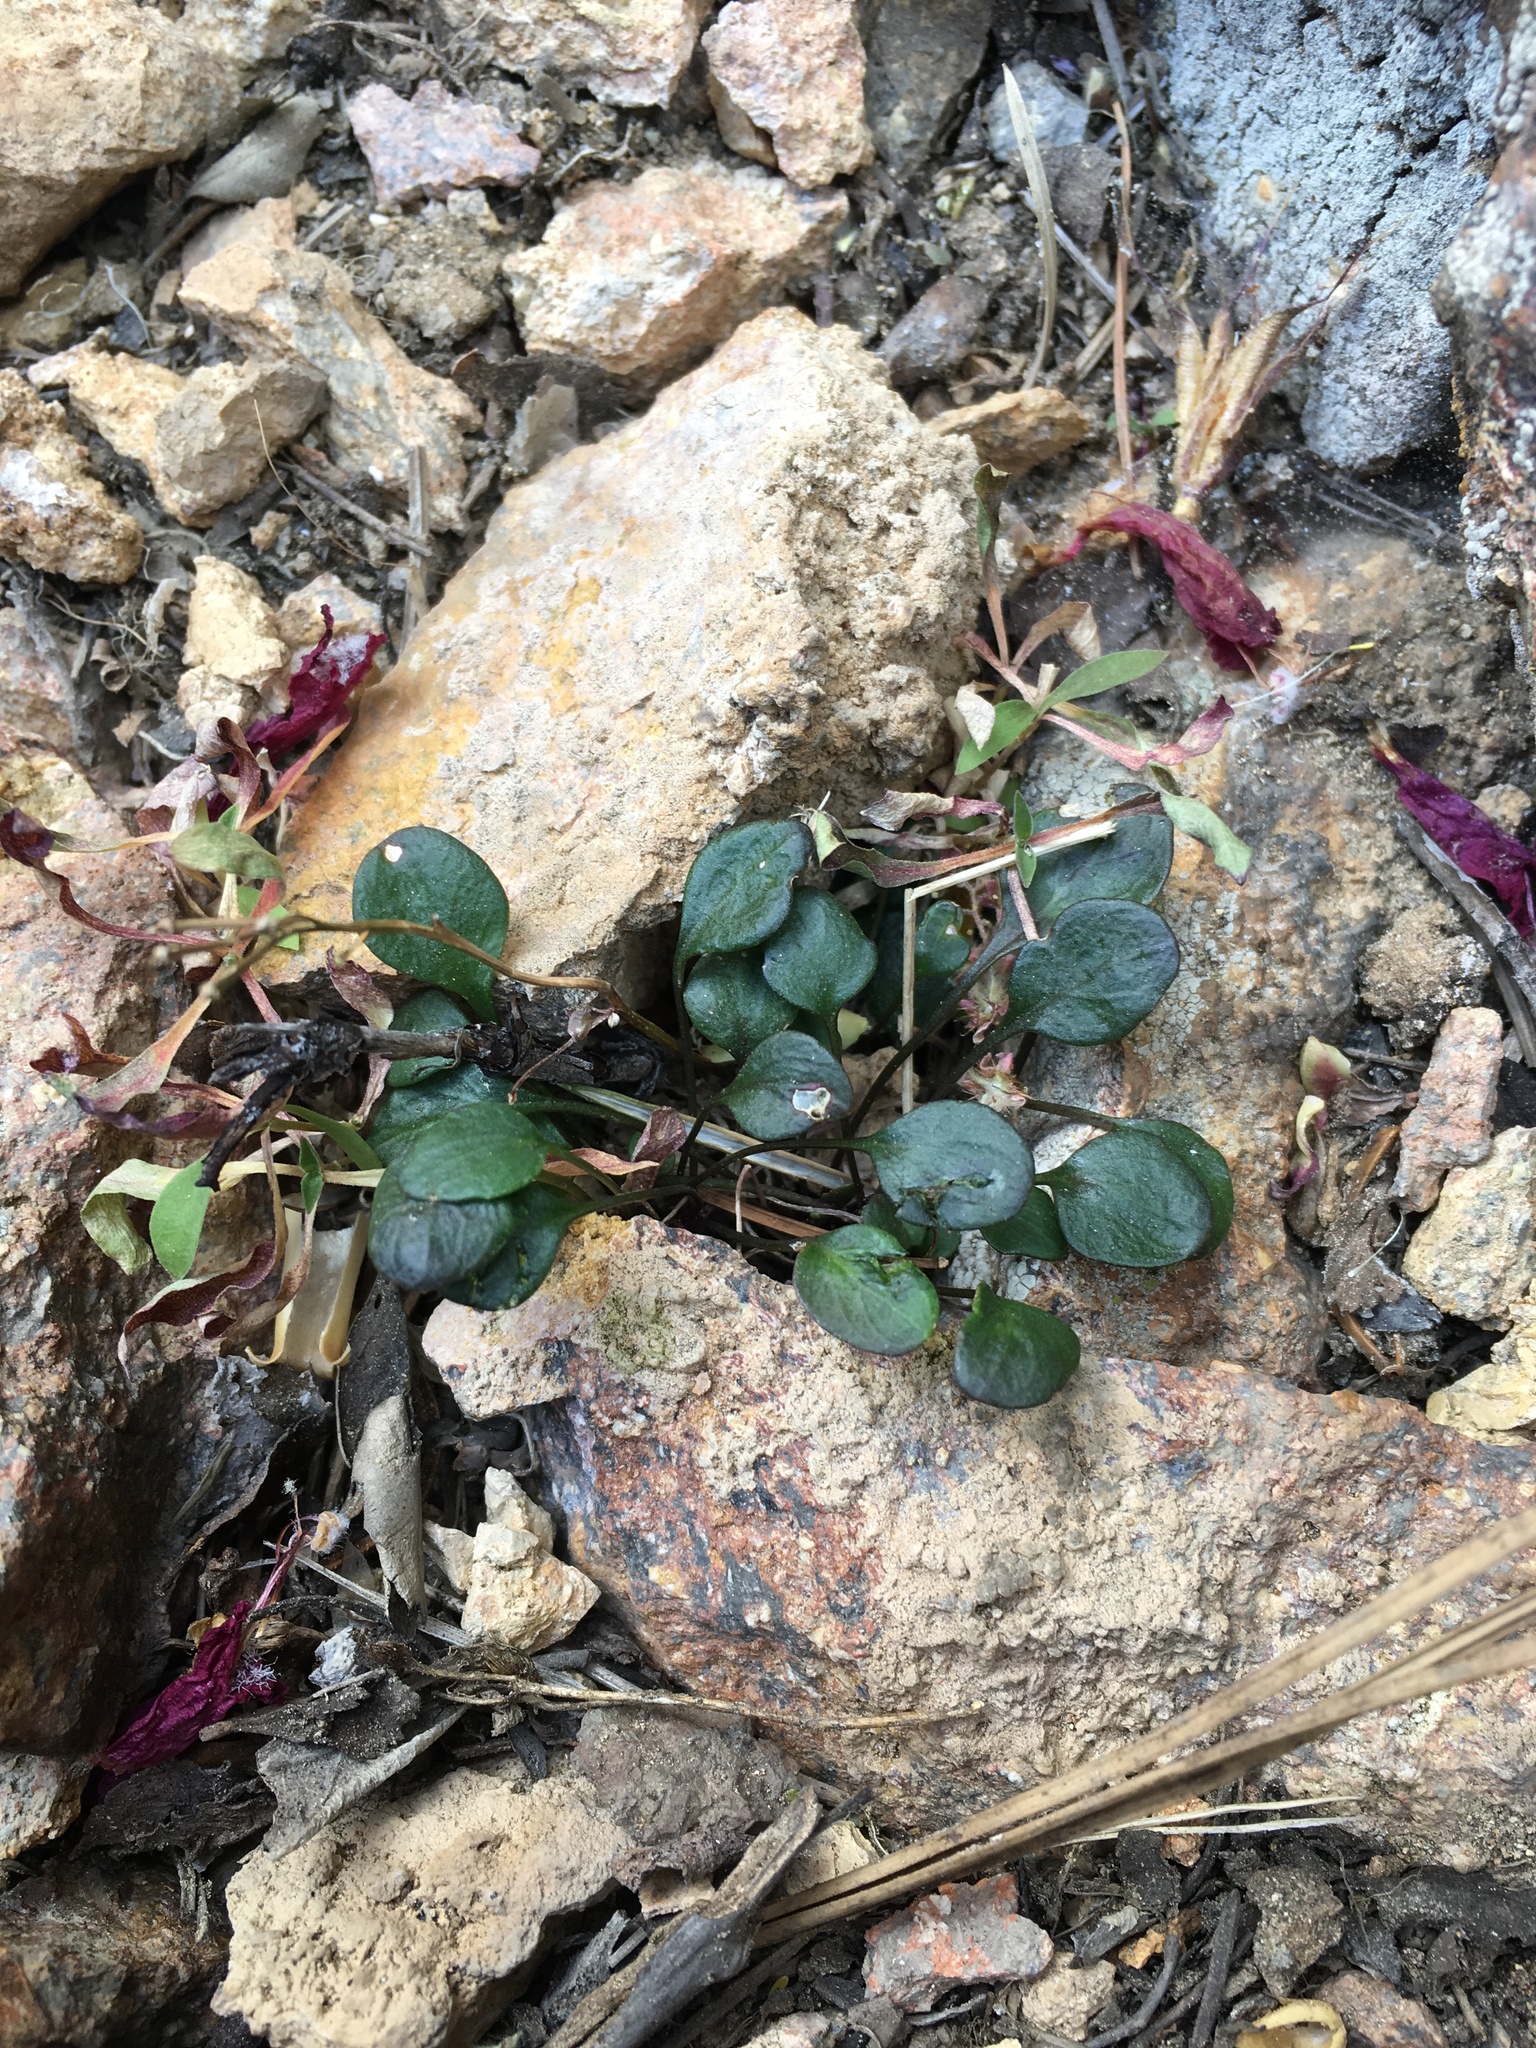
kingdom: Plantae
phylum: Tracheophyta
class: Magnoliopsida
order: Brassicales
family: Brassicaceae
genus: Cardamine
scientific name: Cardamine bellidifolia
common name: Alpine bittercress
